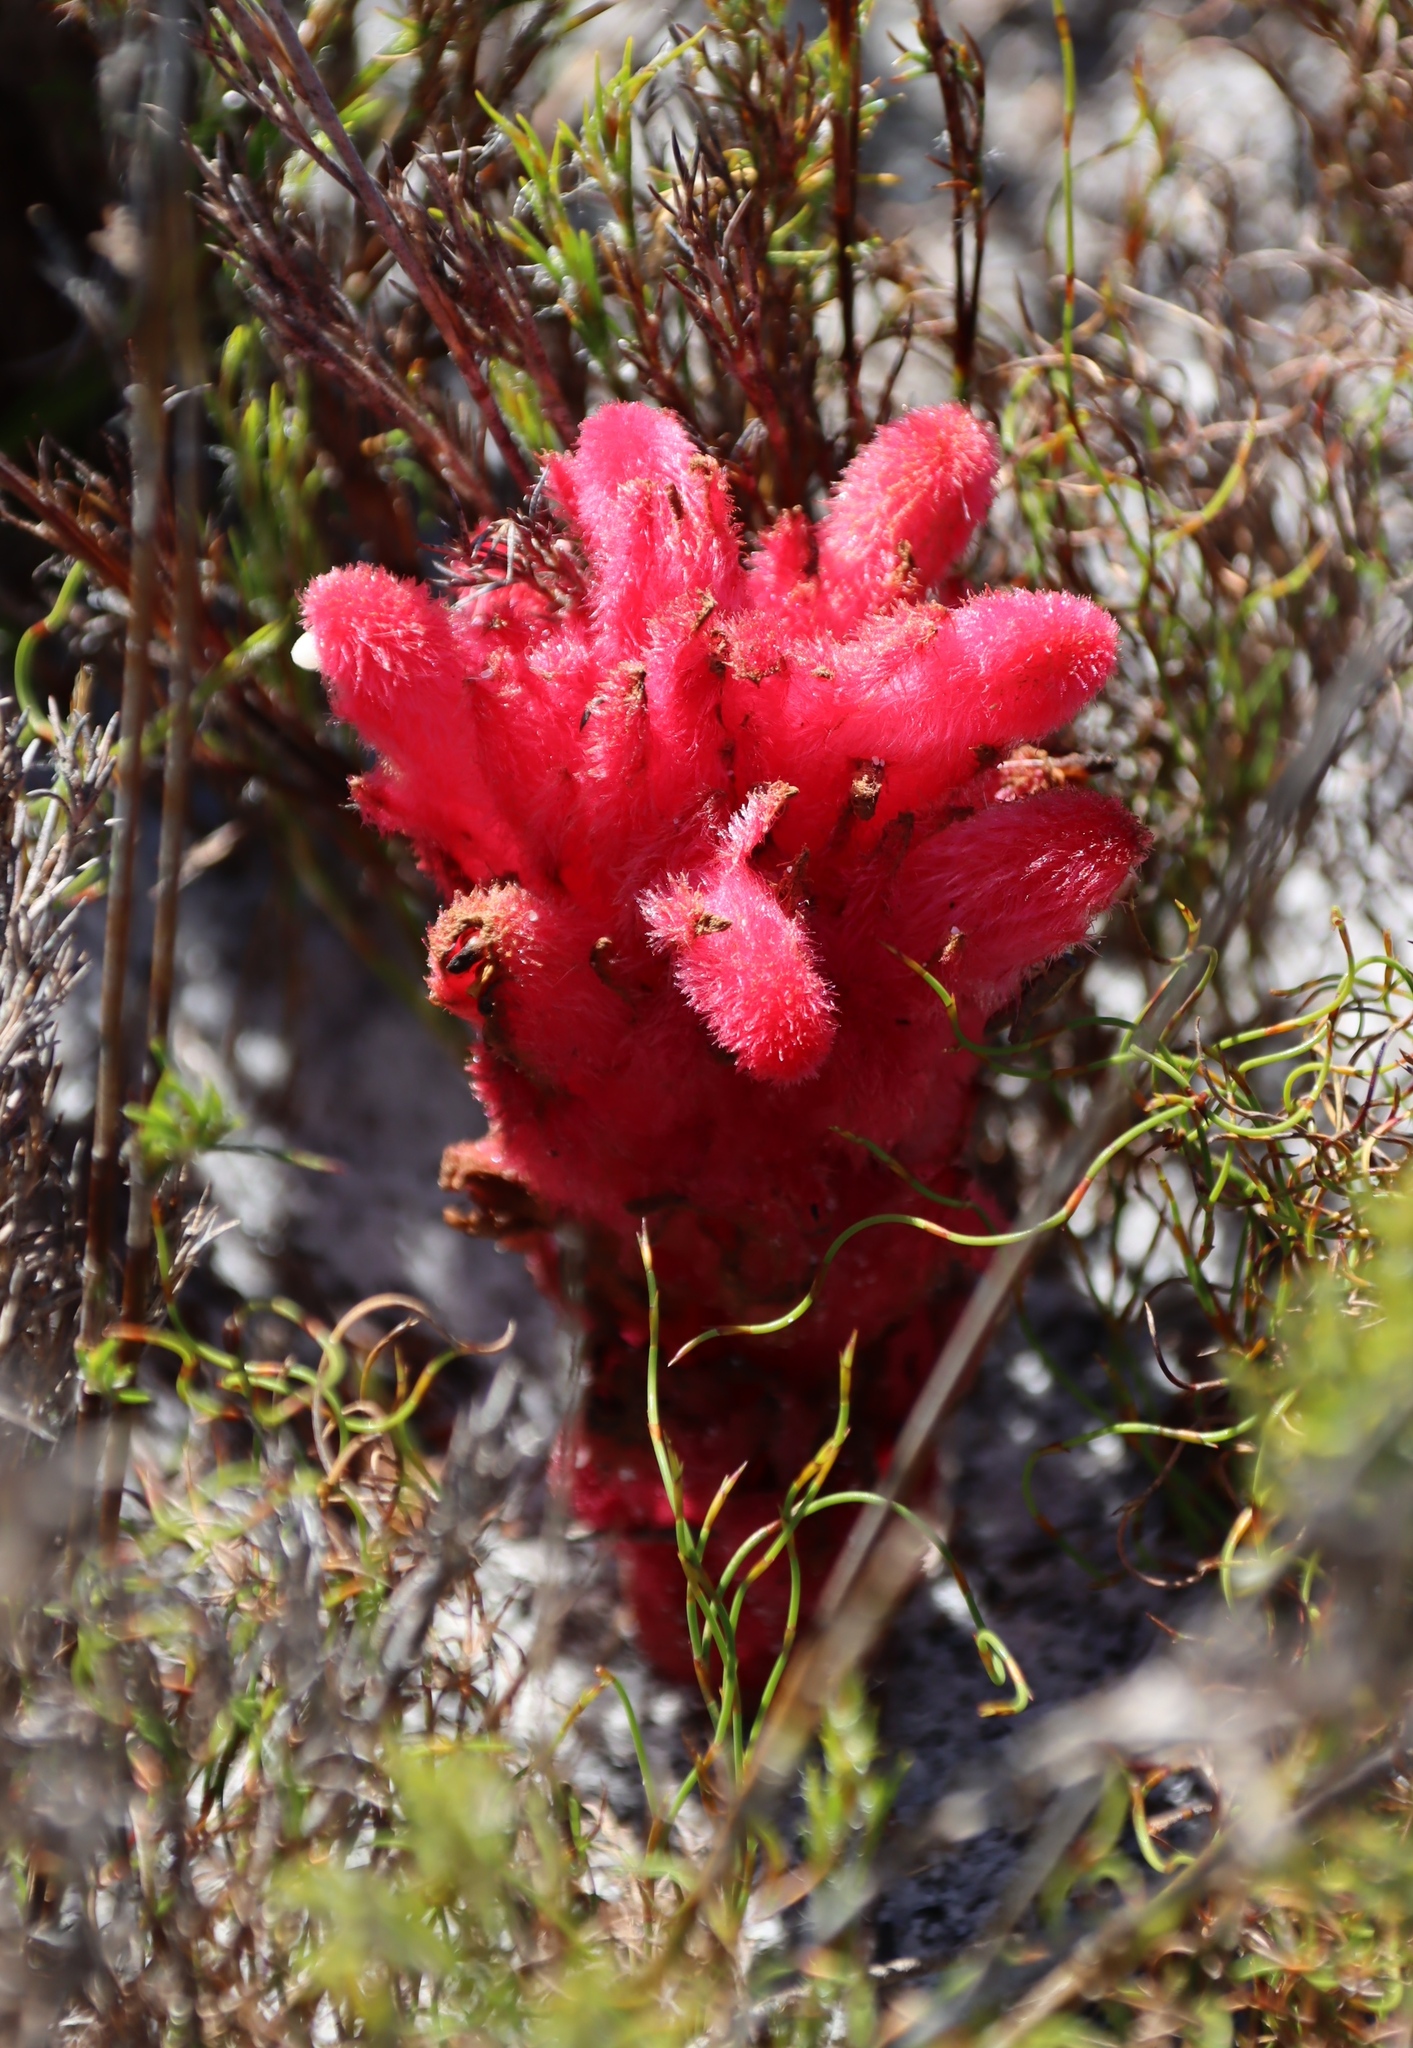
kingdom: Plantae
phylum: Tracheophyta
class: Magnoliopsida
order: Lamiales
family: Orobanchaceae
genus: Hyobanche
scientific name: Hyobanche sanguinea
